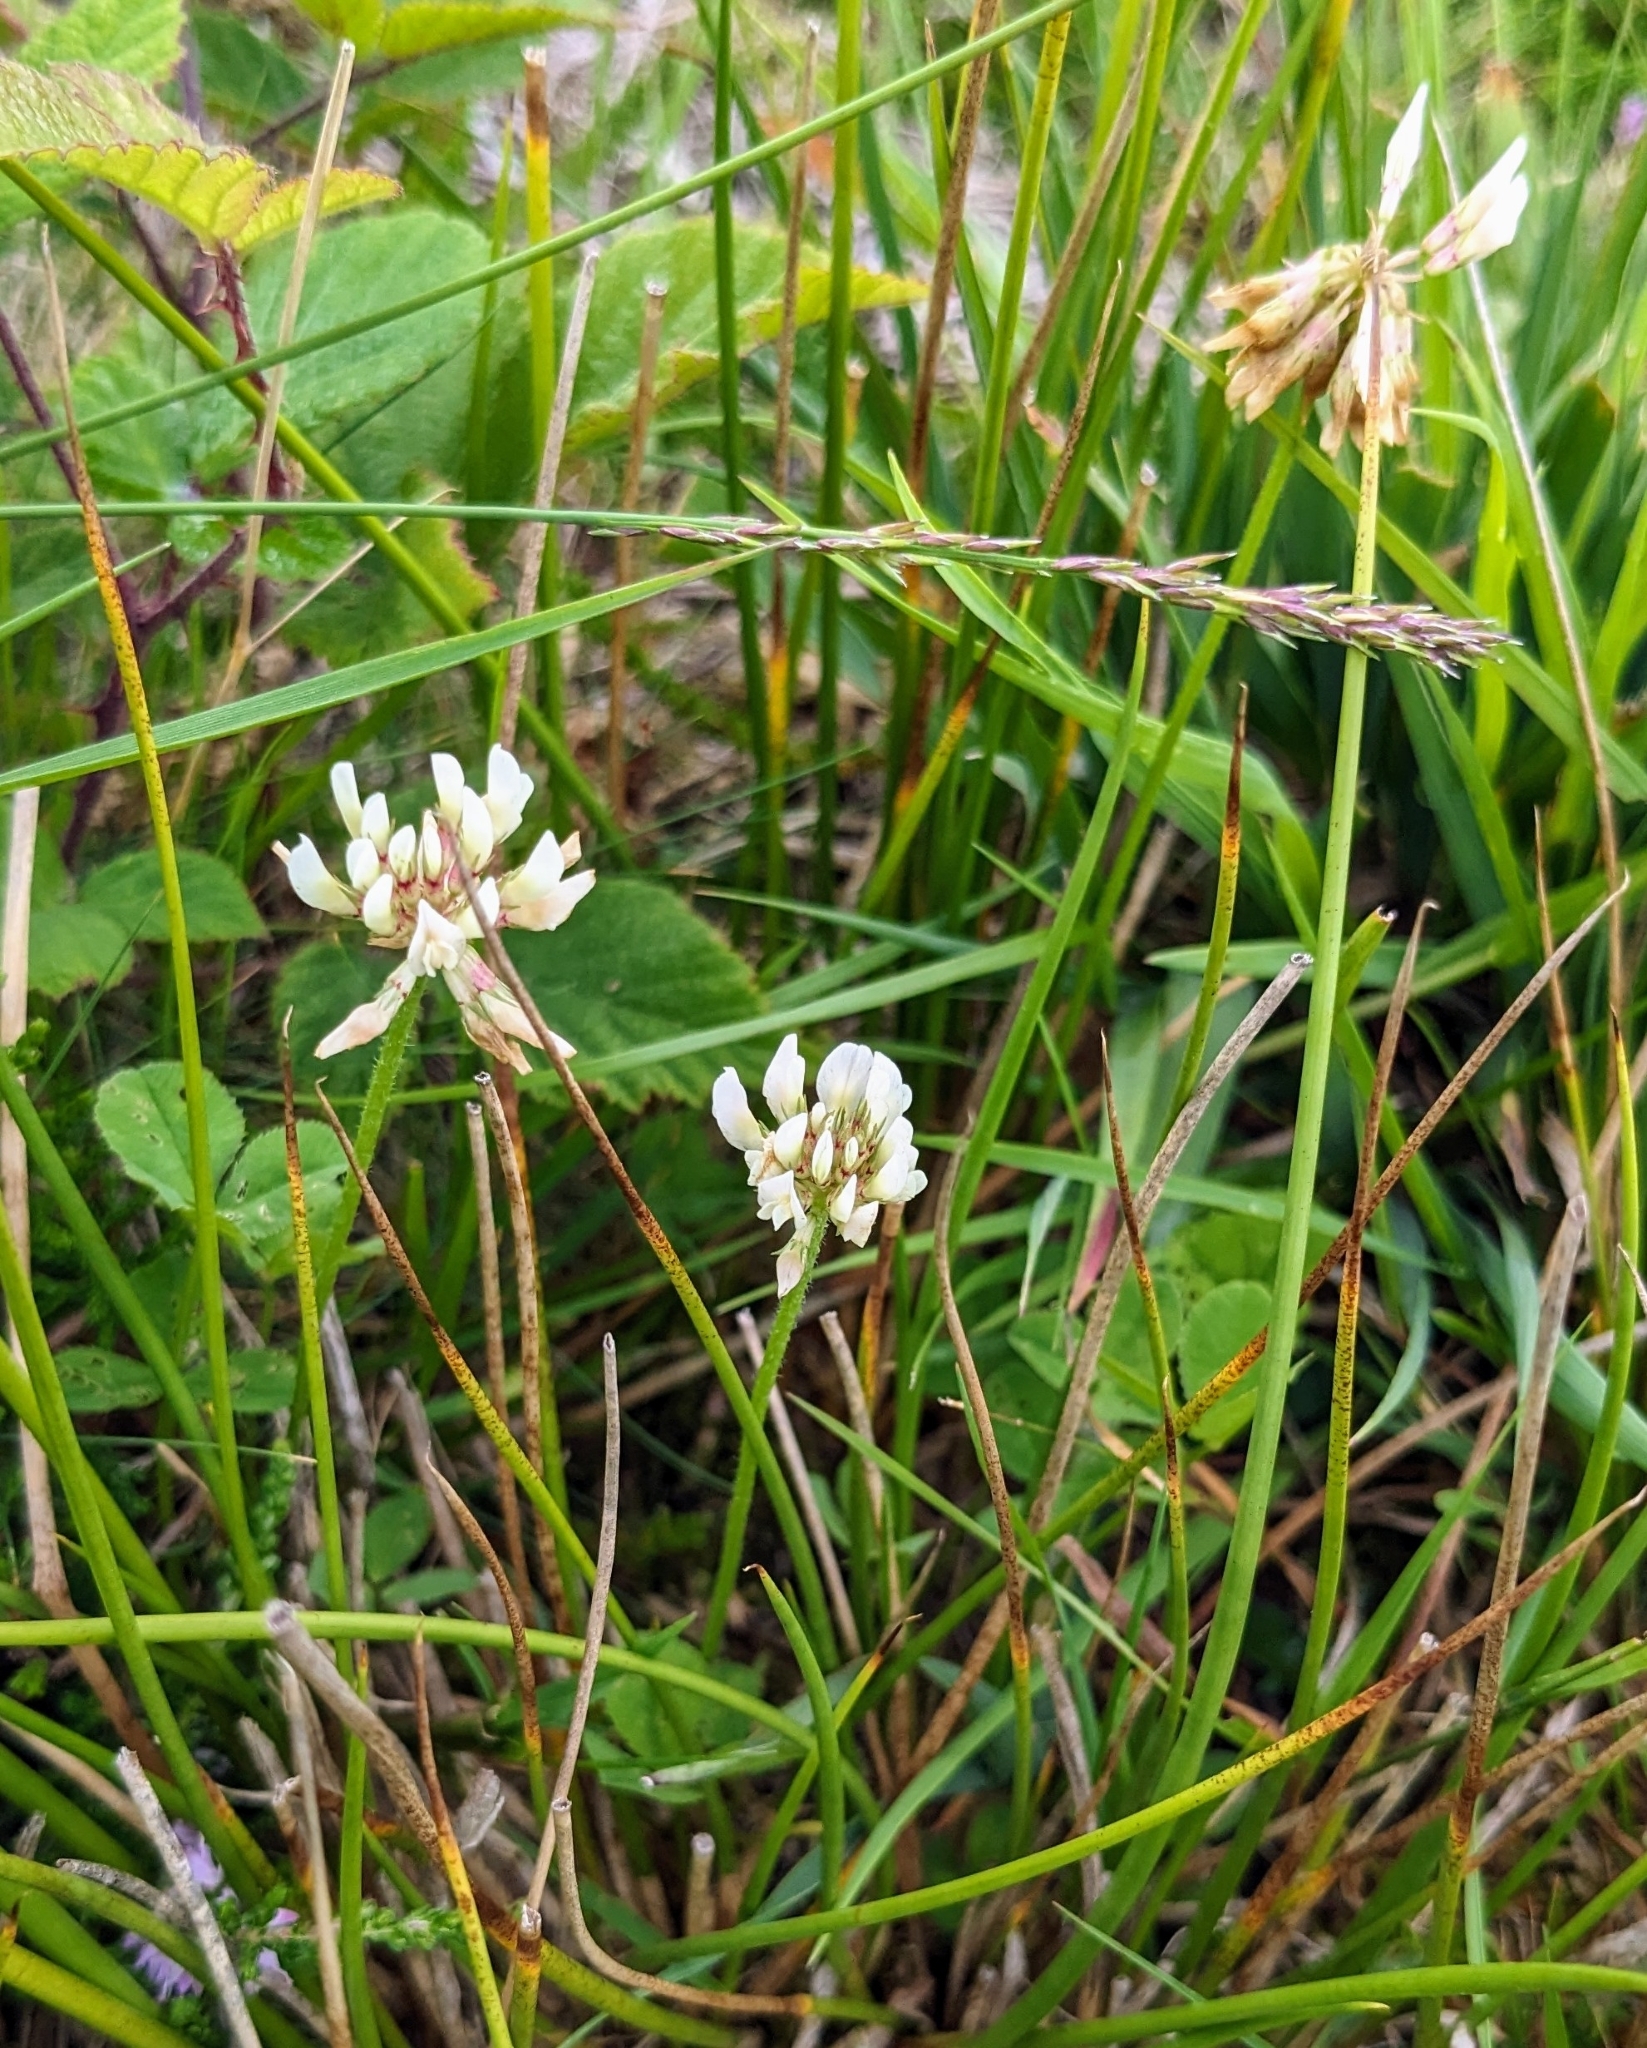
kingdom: Plantae
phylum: Tracheophyta
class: Magnoliopsida
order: Fabales
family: Fabaceae
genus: Trifolium
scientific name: Trifolium repens
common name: White clover
